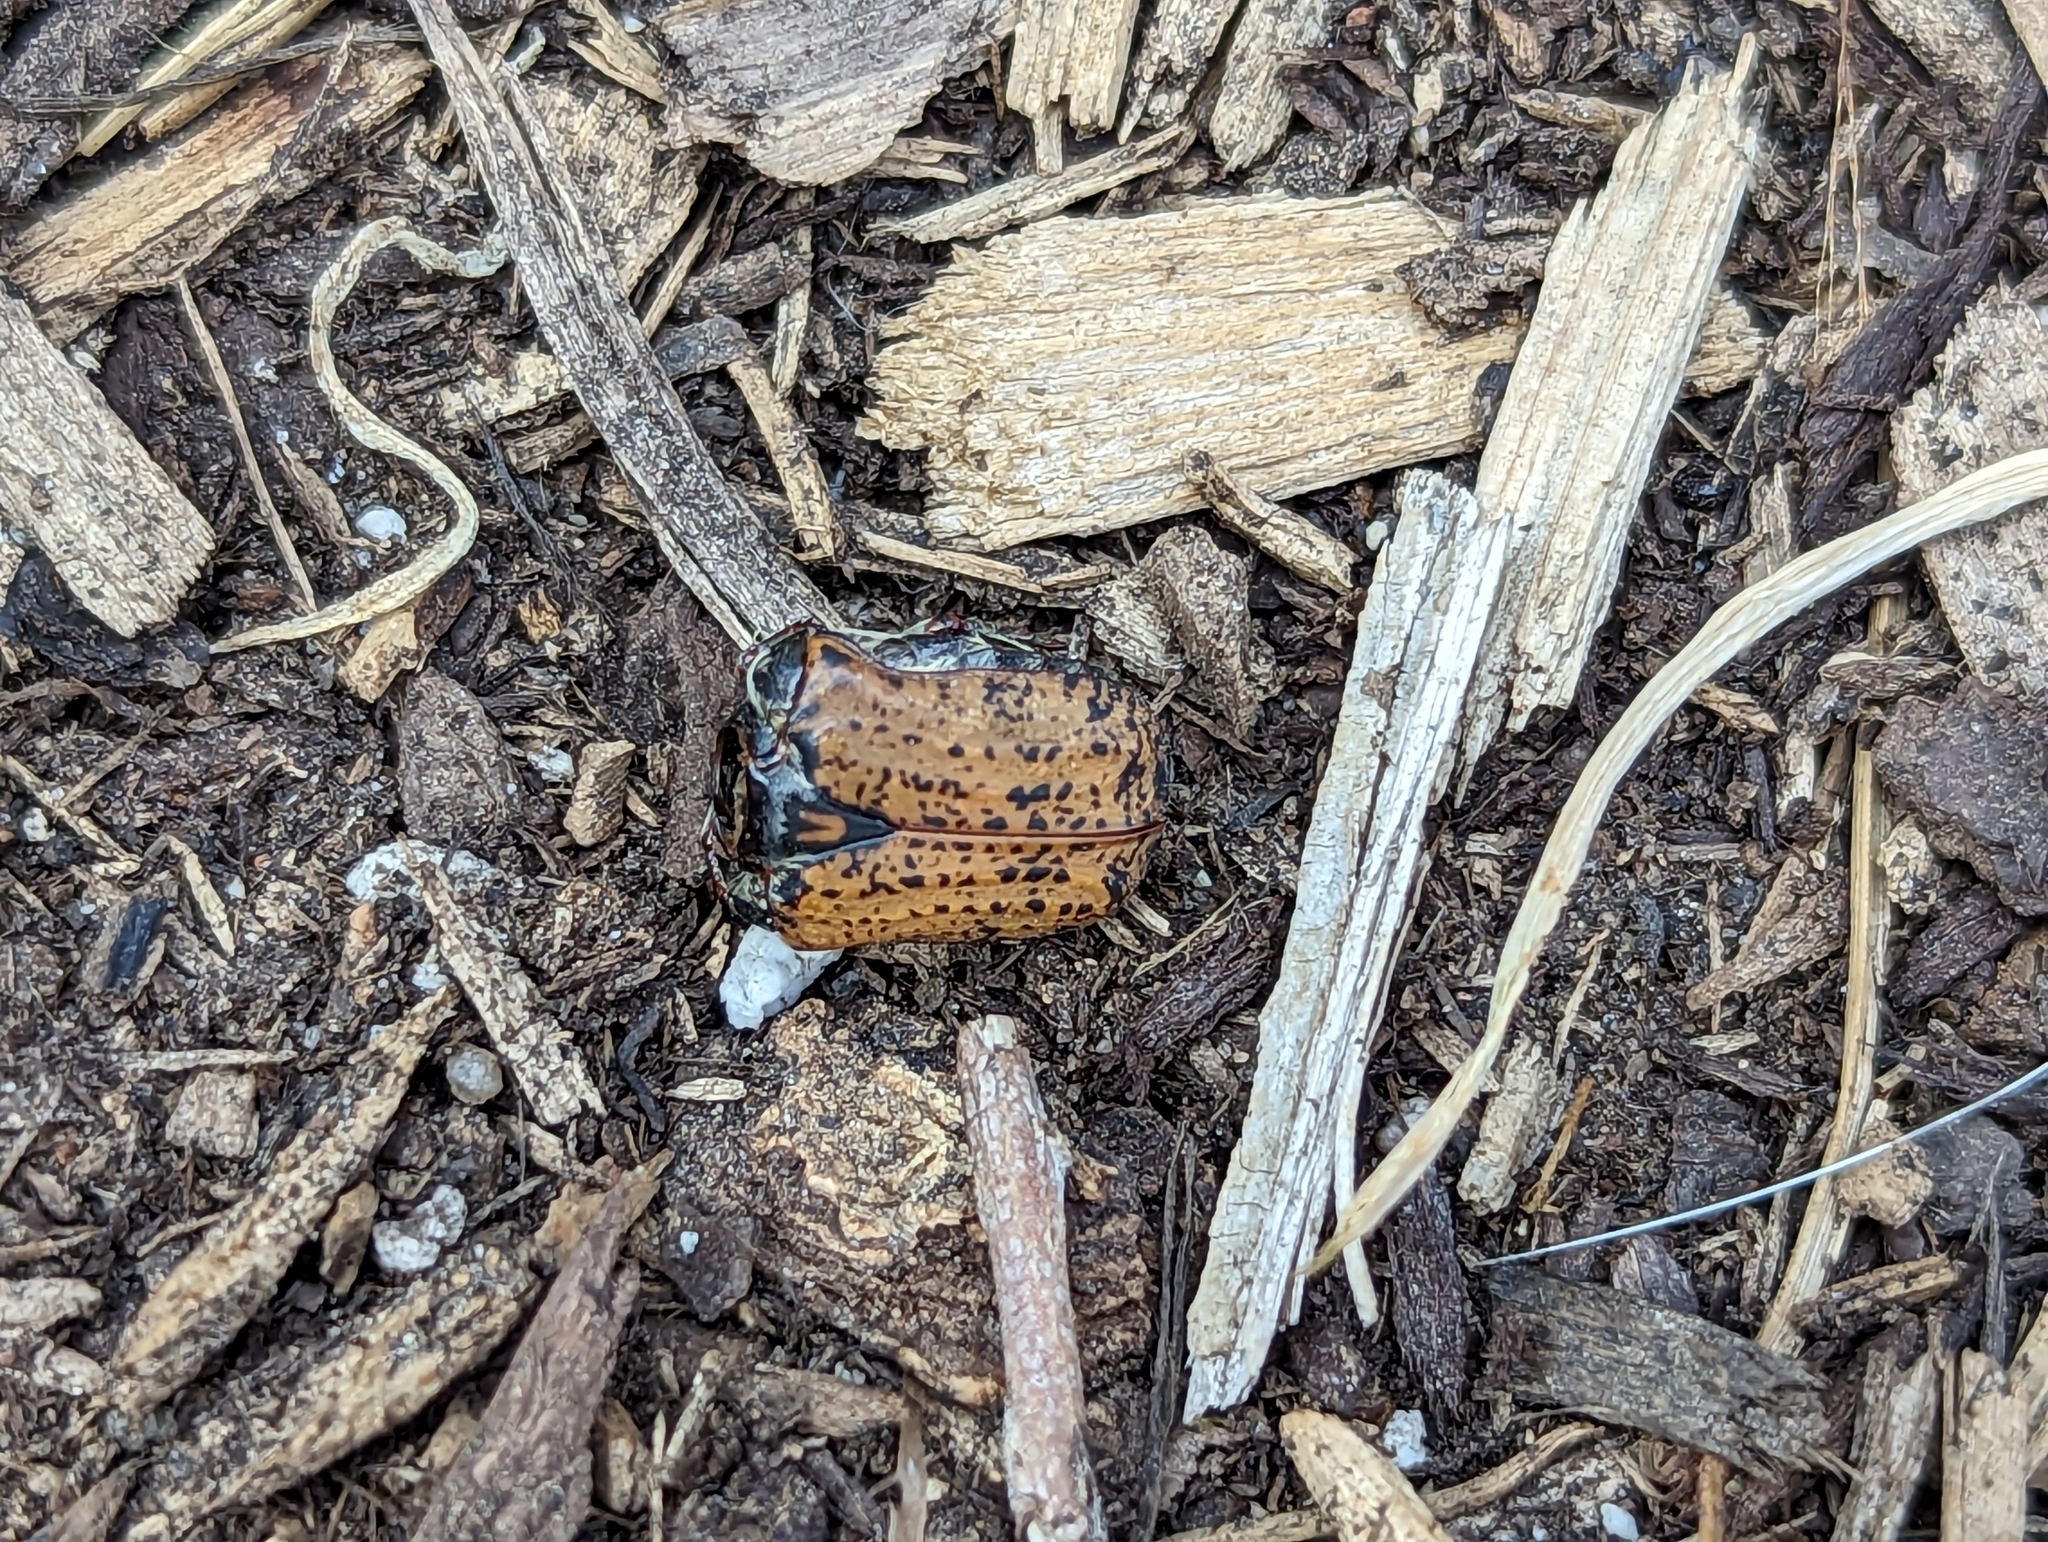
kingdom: Animalia
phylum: Arthropoda
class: Insecta
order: Coleoptera
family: Scarabaeidae
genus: Euphoria
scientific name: Euphoria inda
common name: Bumble flower beetle
